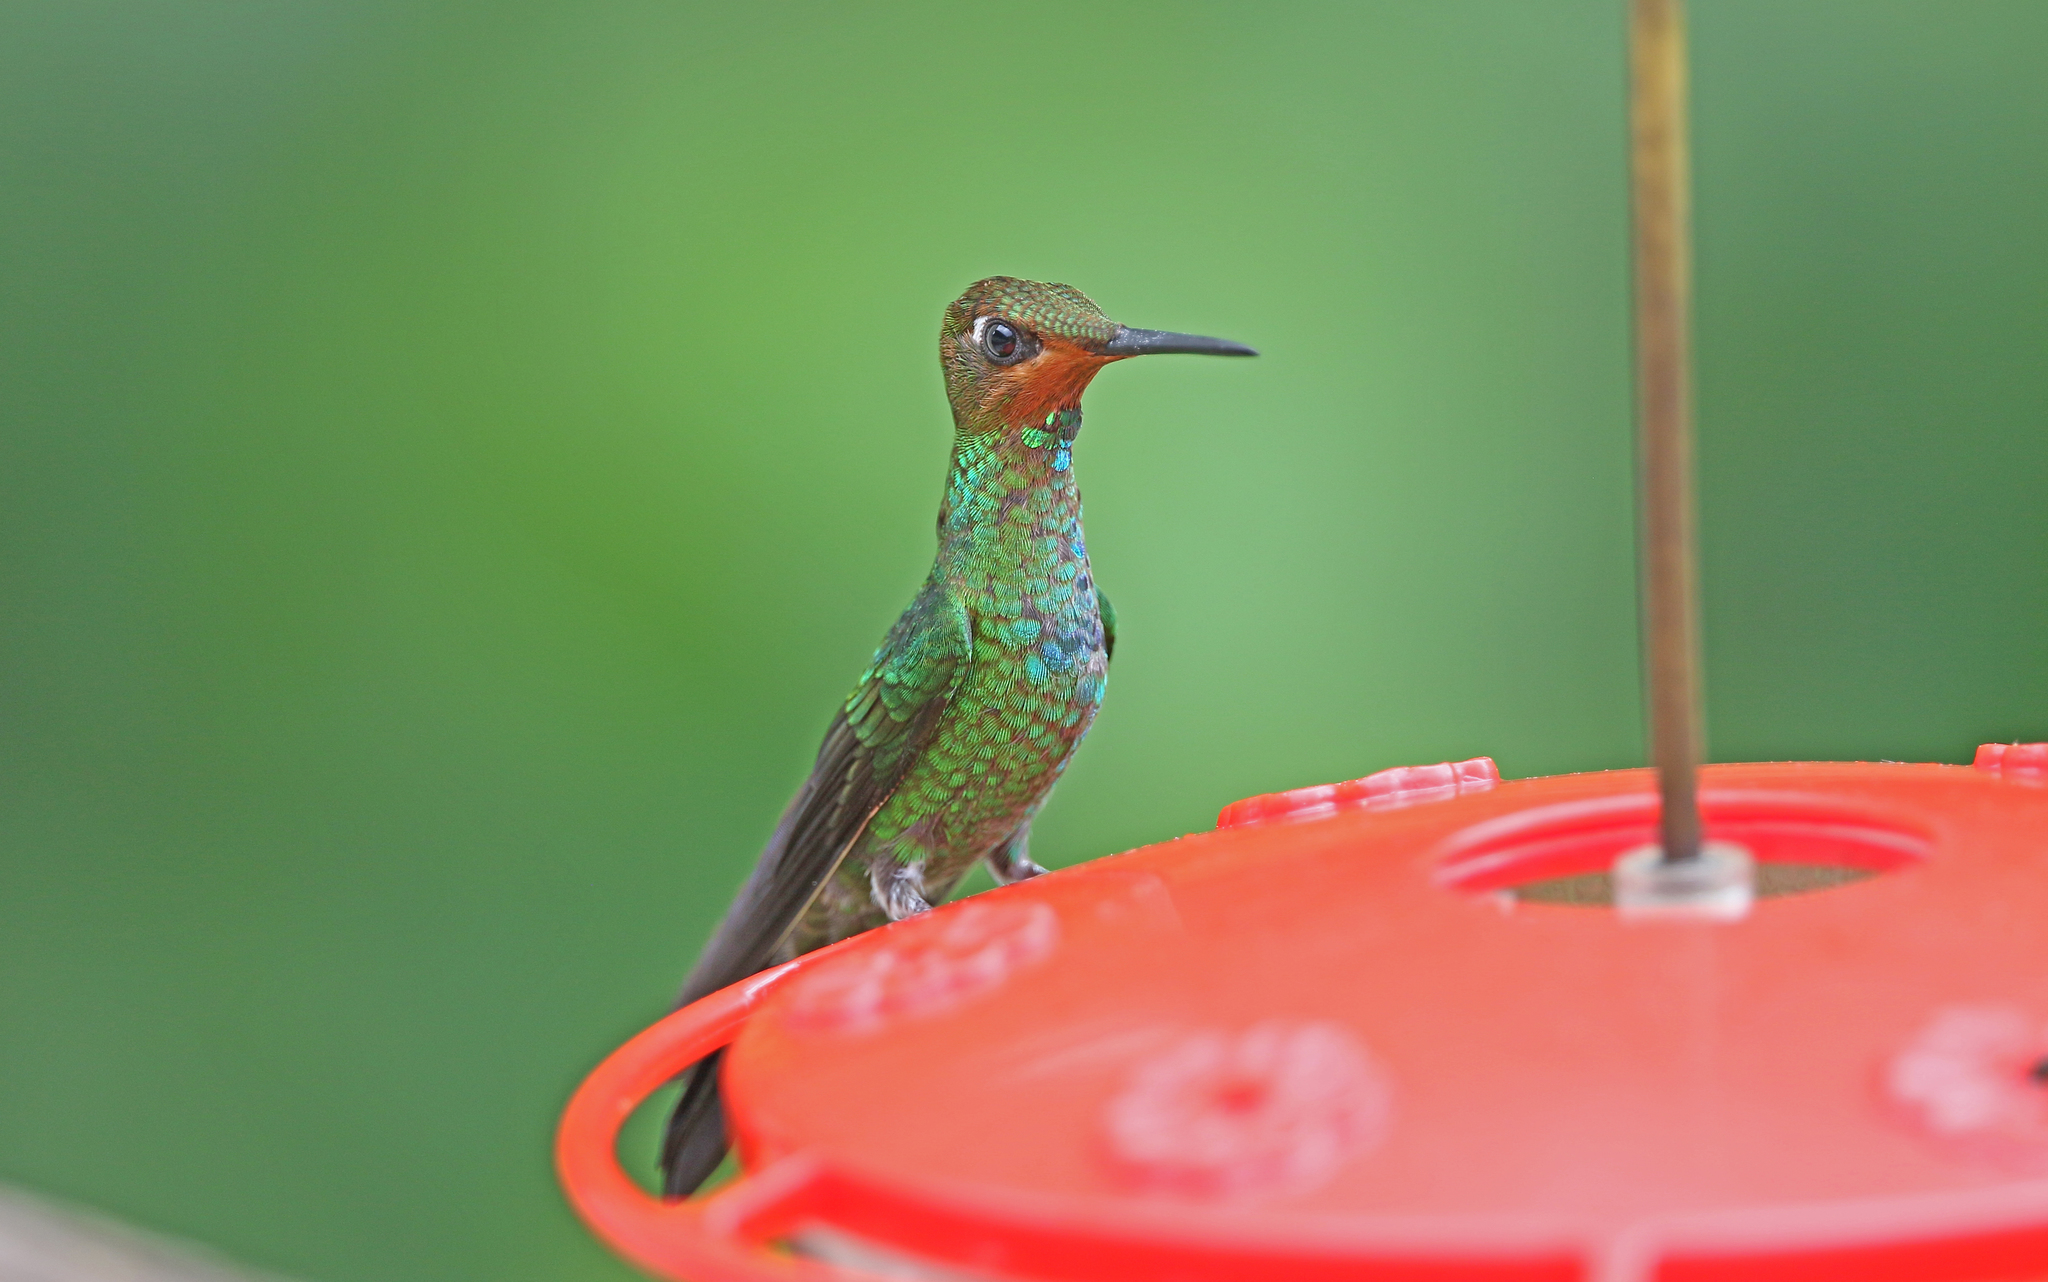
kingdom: Animalia
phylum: Chordata
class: Aves
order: Apodiformes
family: Trochilidae
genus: Heliodoxa
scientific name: Heliodoxa leadbeateri
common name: Violet-fronted brilliant
